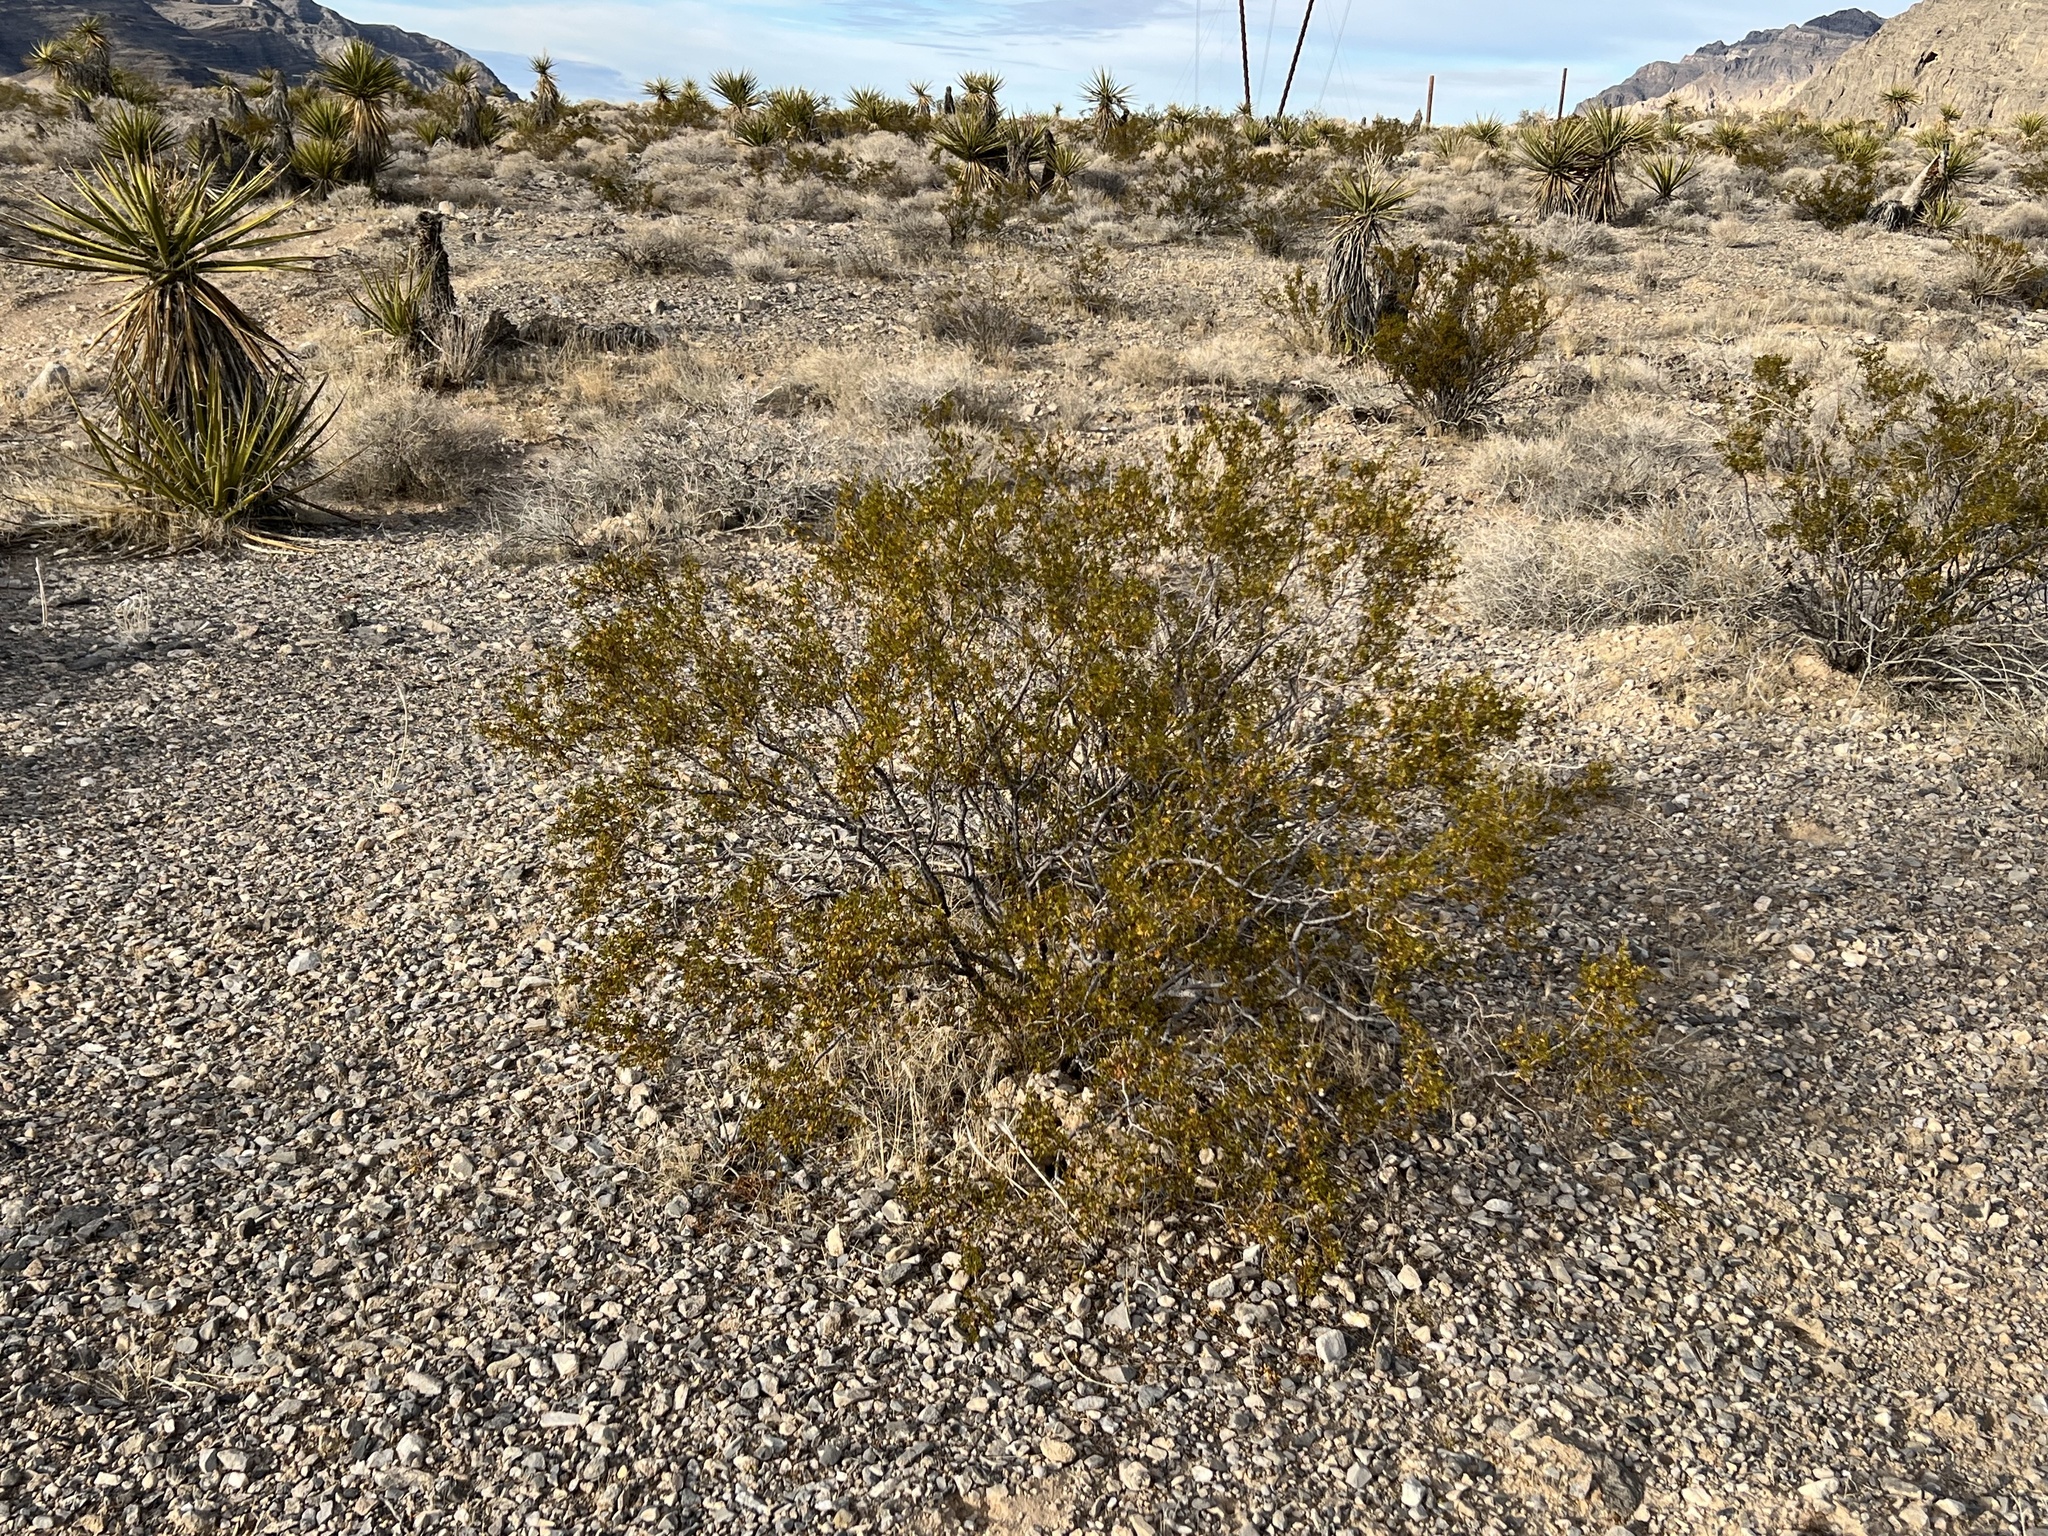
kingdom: Plantae
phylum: Tracheophyta
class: Magnoliopsida
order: Zygophyllales
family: Zygophyllaceae
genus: Larrea
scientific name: Larrea tridentata
